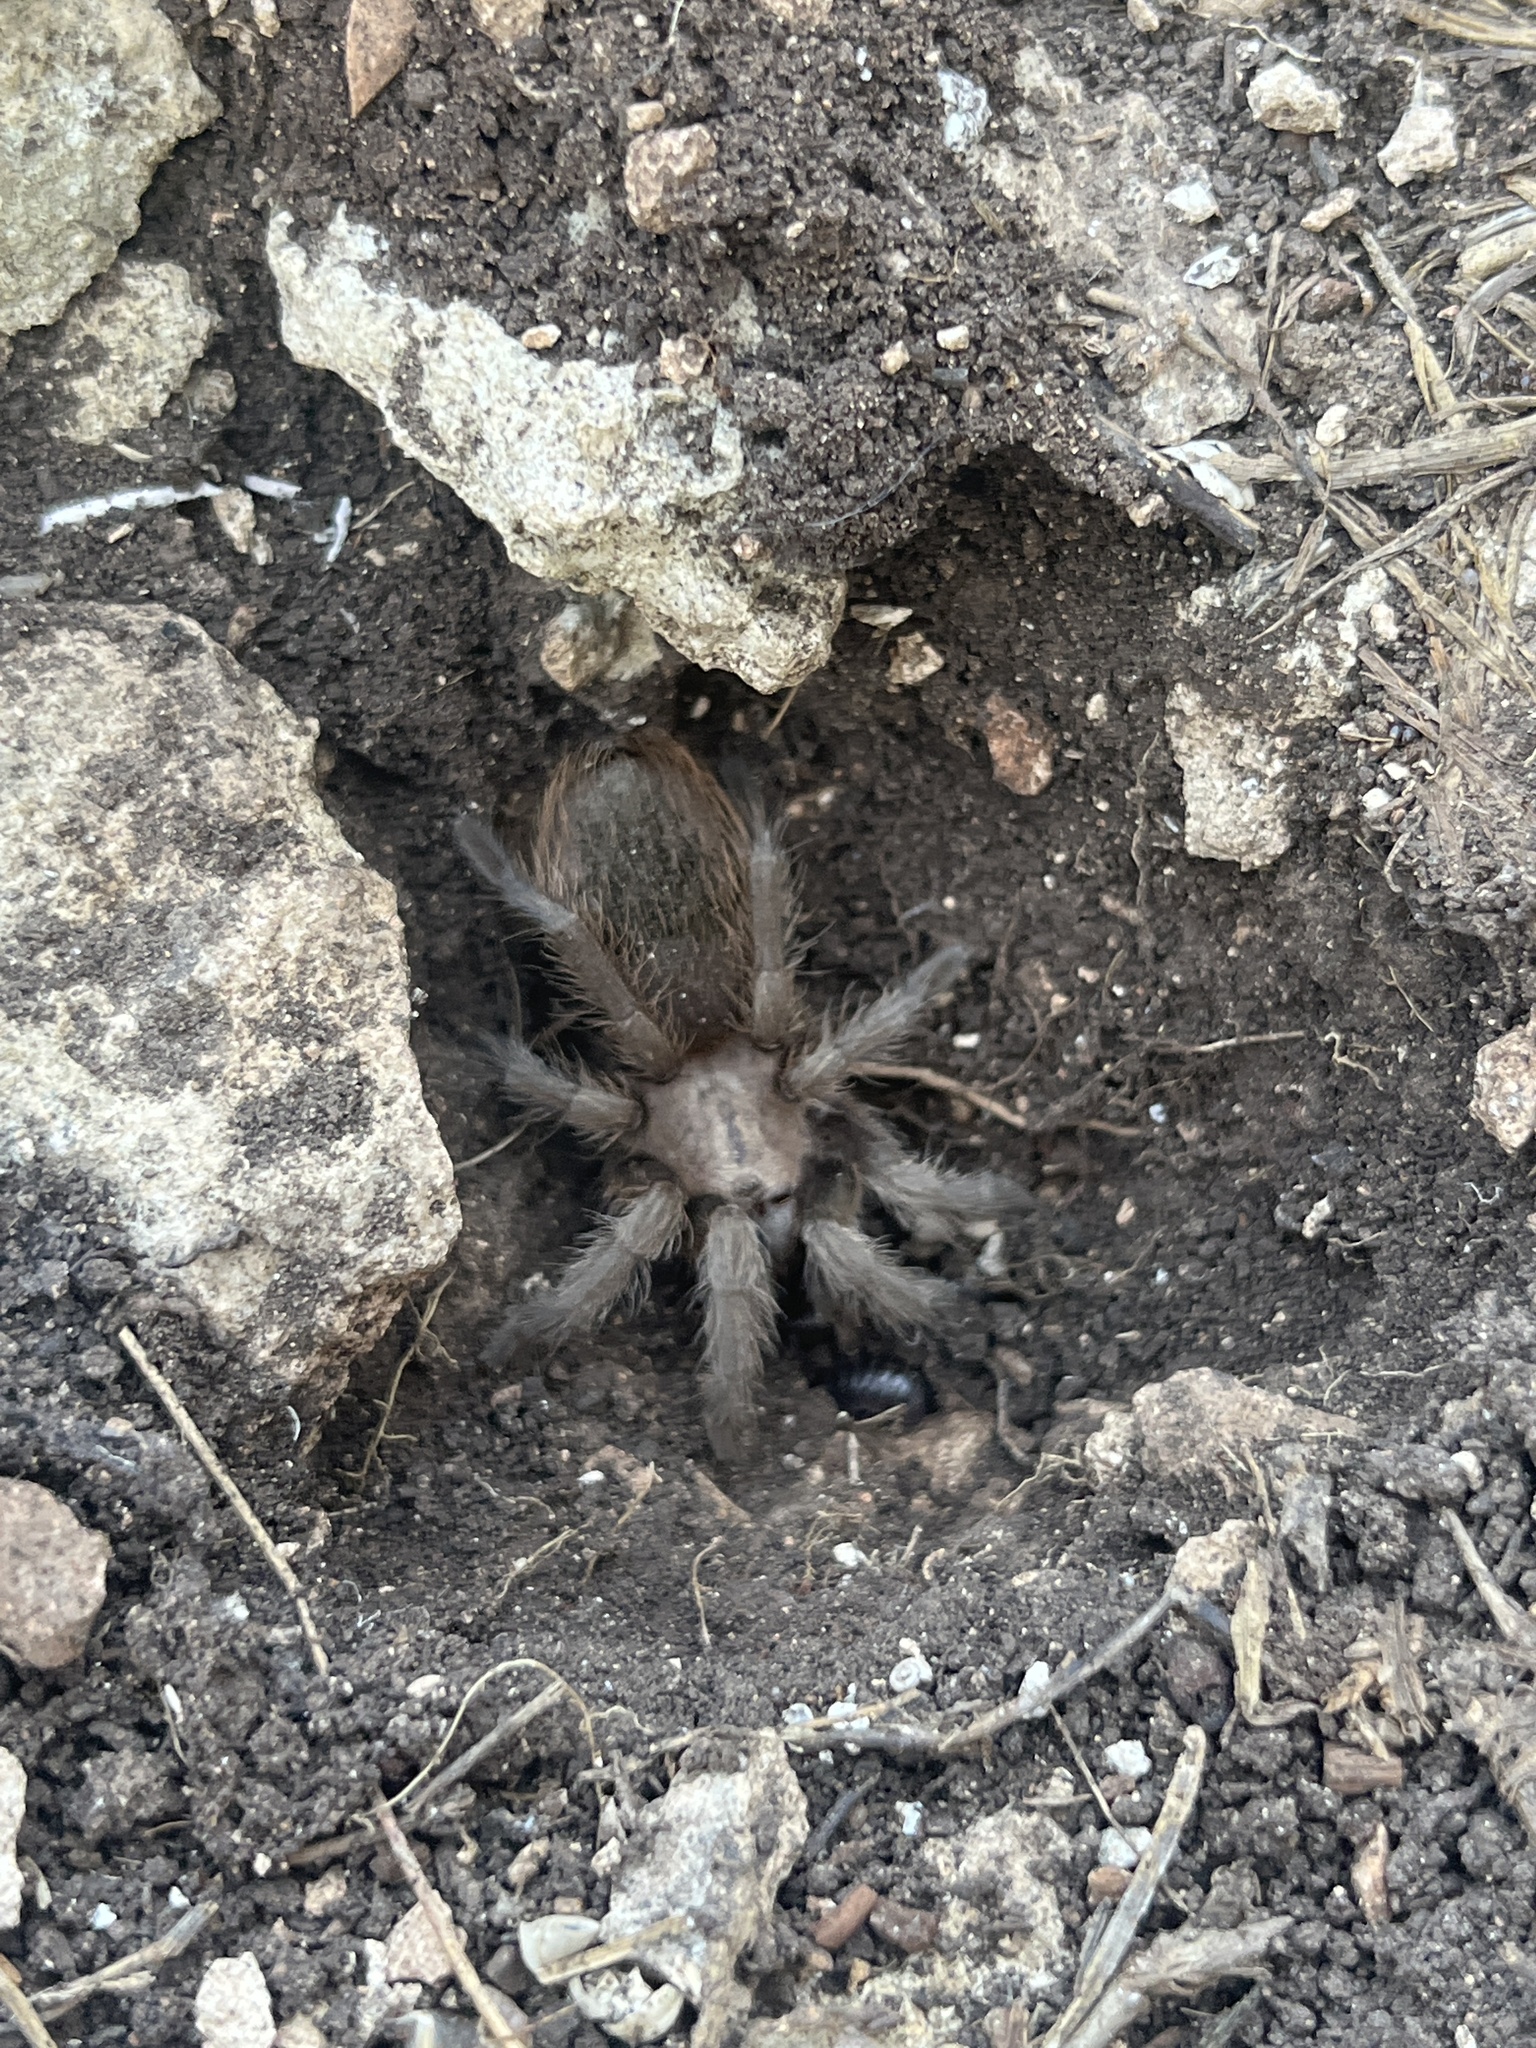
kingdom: Animalia
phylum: Arthropoda
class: Arachnida
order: Araneae
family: Theraphosidae
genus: Aphonopelma
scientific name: Aphonopelma hentzi
